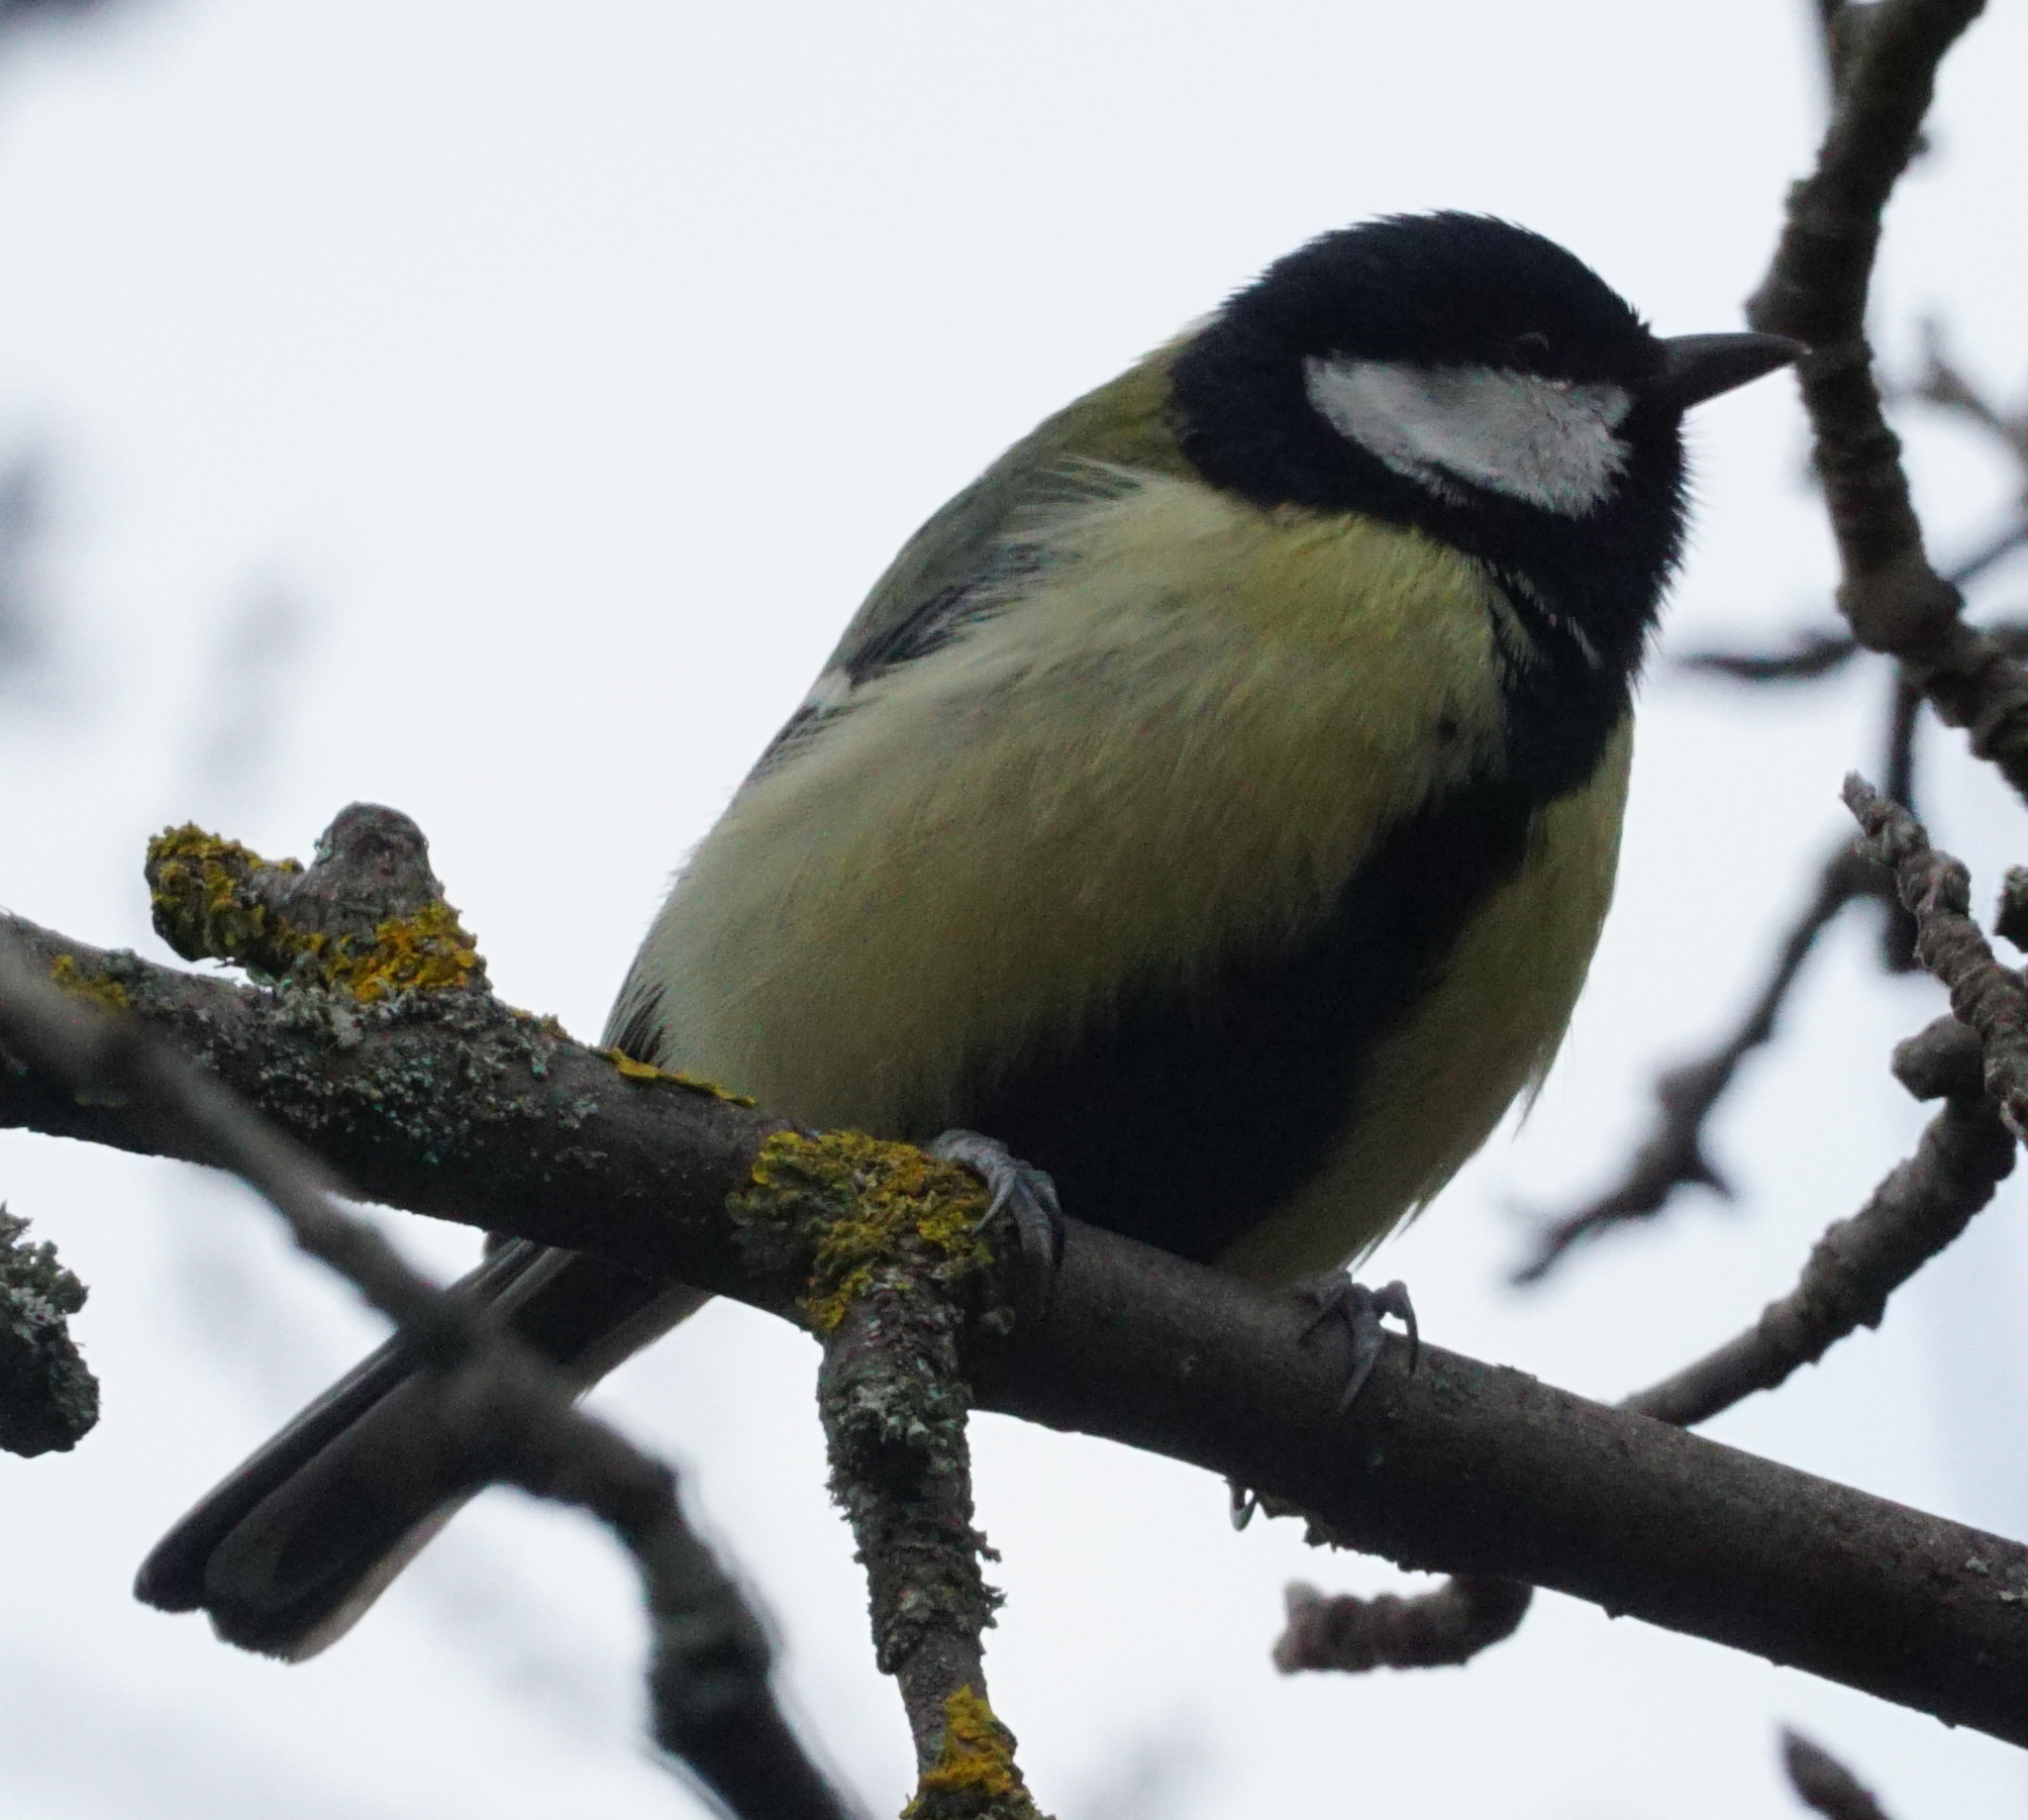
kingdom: Animalia
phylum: Chordata
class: Aves
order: Passeriformes
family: Paridae
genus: Parus
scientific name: Parus major
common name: Great tit
